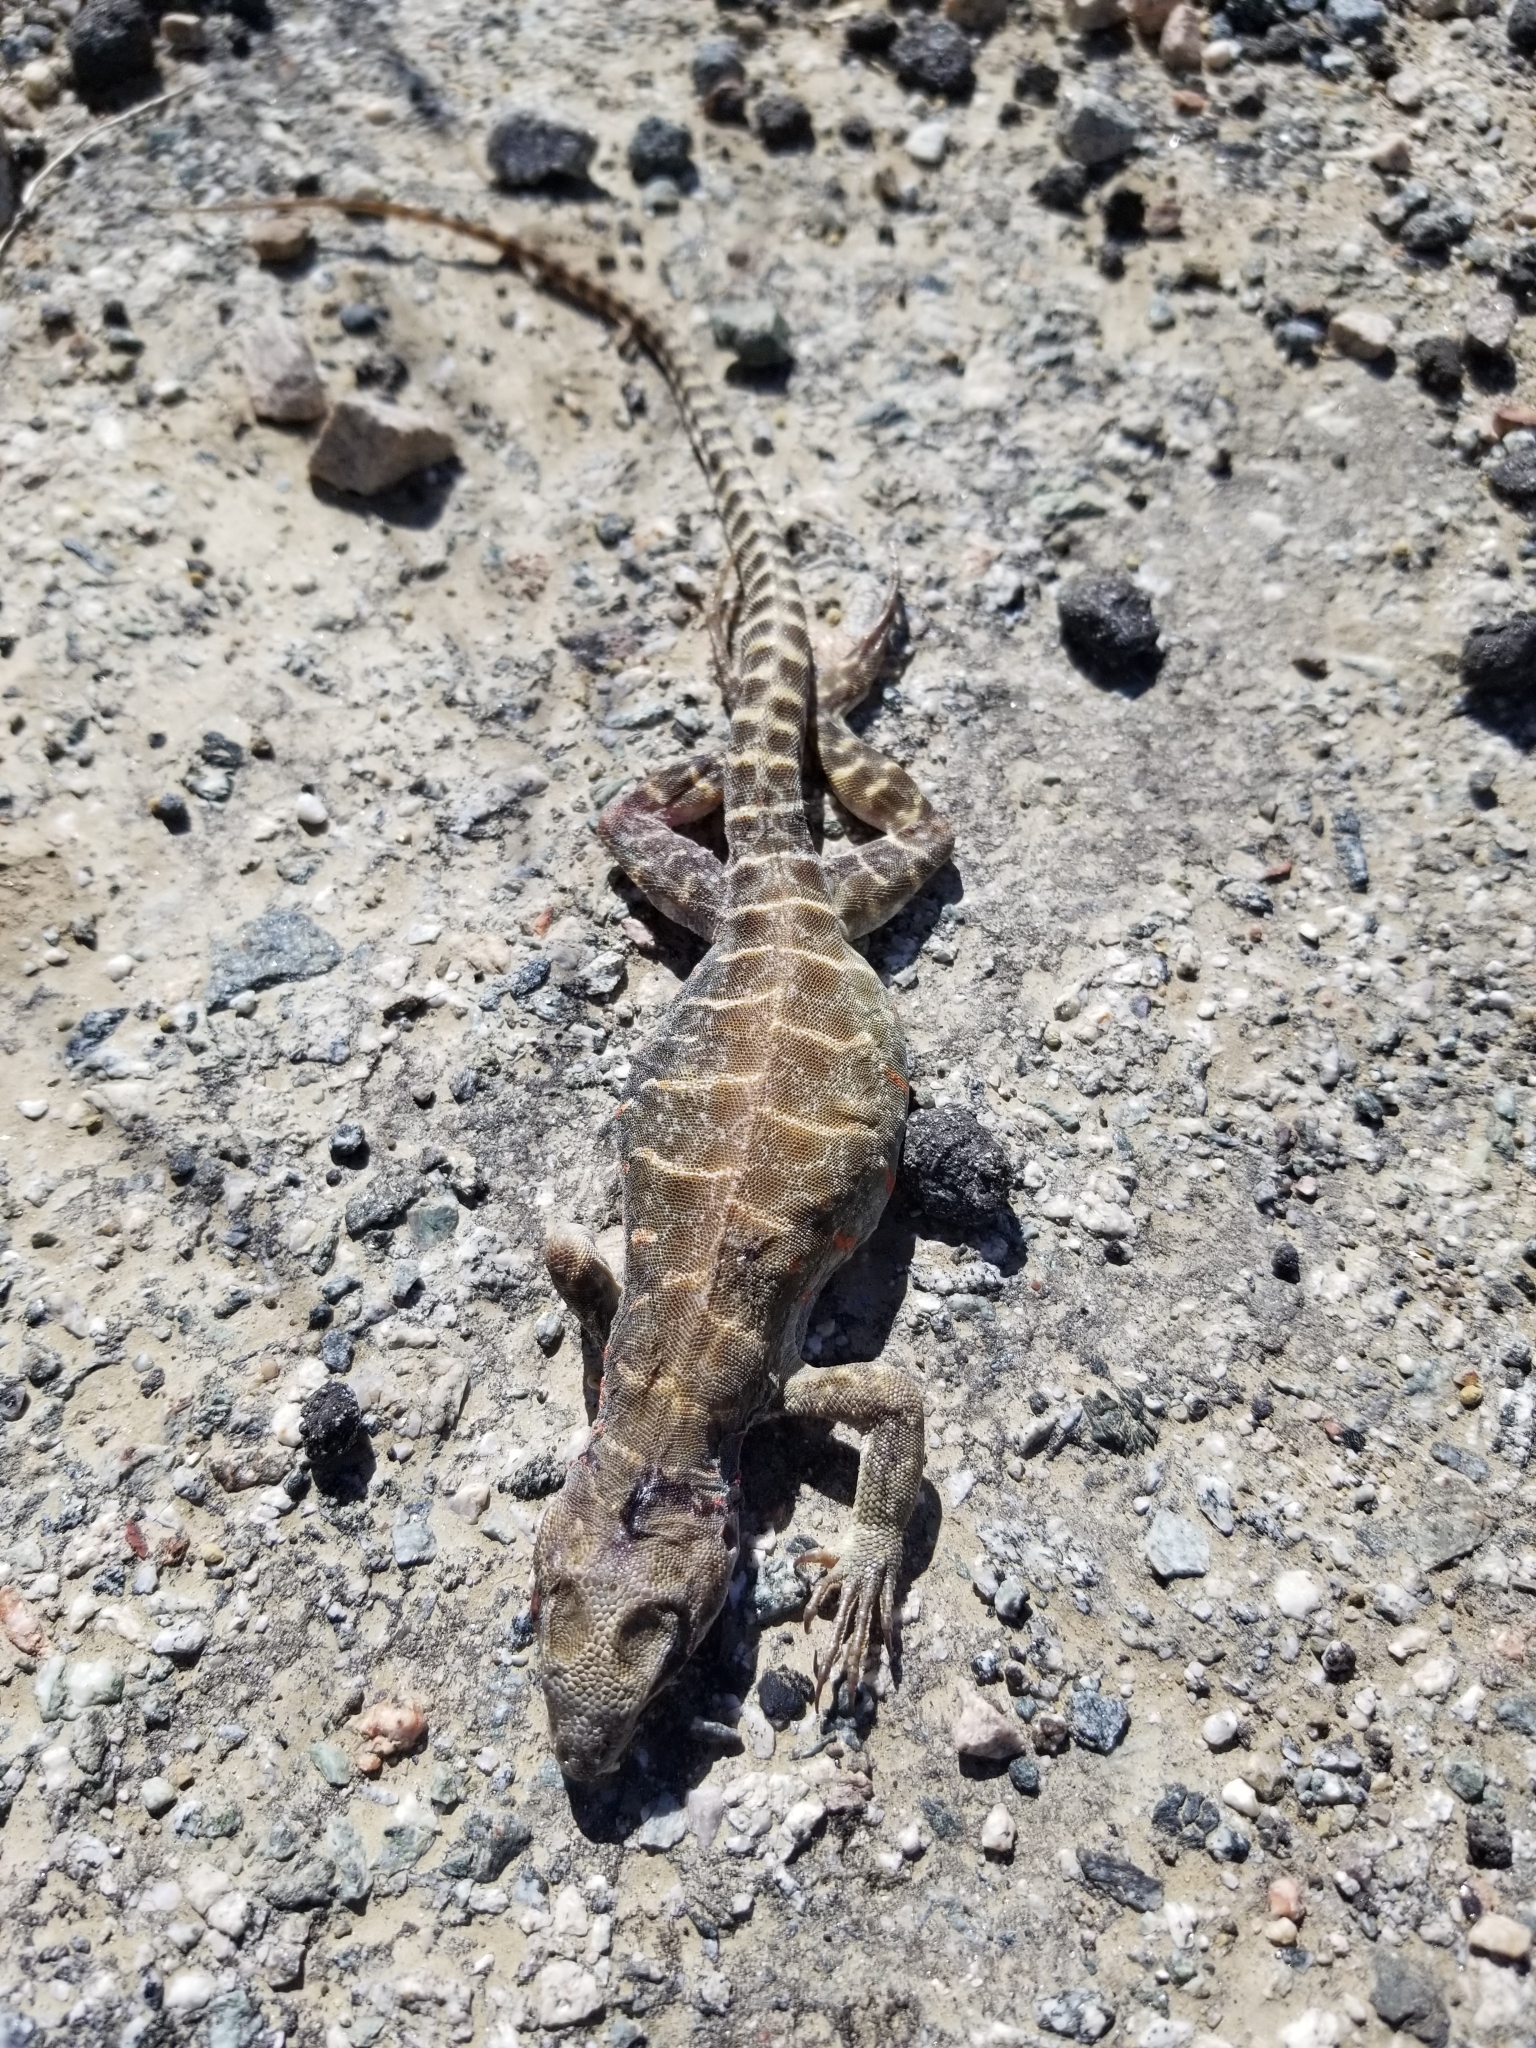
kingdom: Animalia
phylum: Chordata
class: Squamata
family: Crotaphytidae
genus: Gambelia
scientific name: Gambelia wislizenii
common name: Longnose leopard lizard
